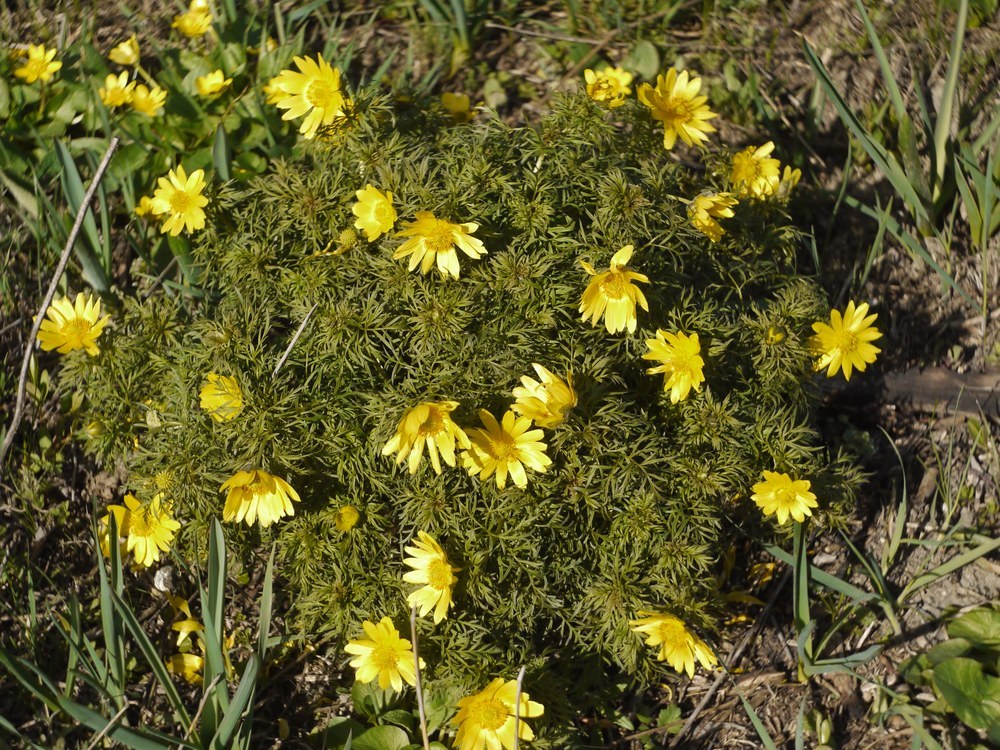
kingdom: Plantae
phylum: Tracheophyta
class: Magnoliopsida
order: Ranunculales
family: Ranunculaceae
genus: Adonis
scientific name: Adonis volgensis
